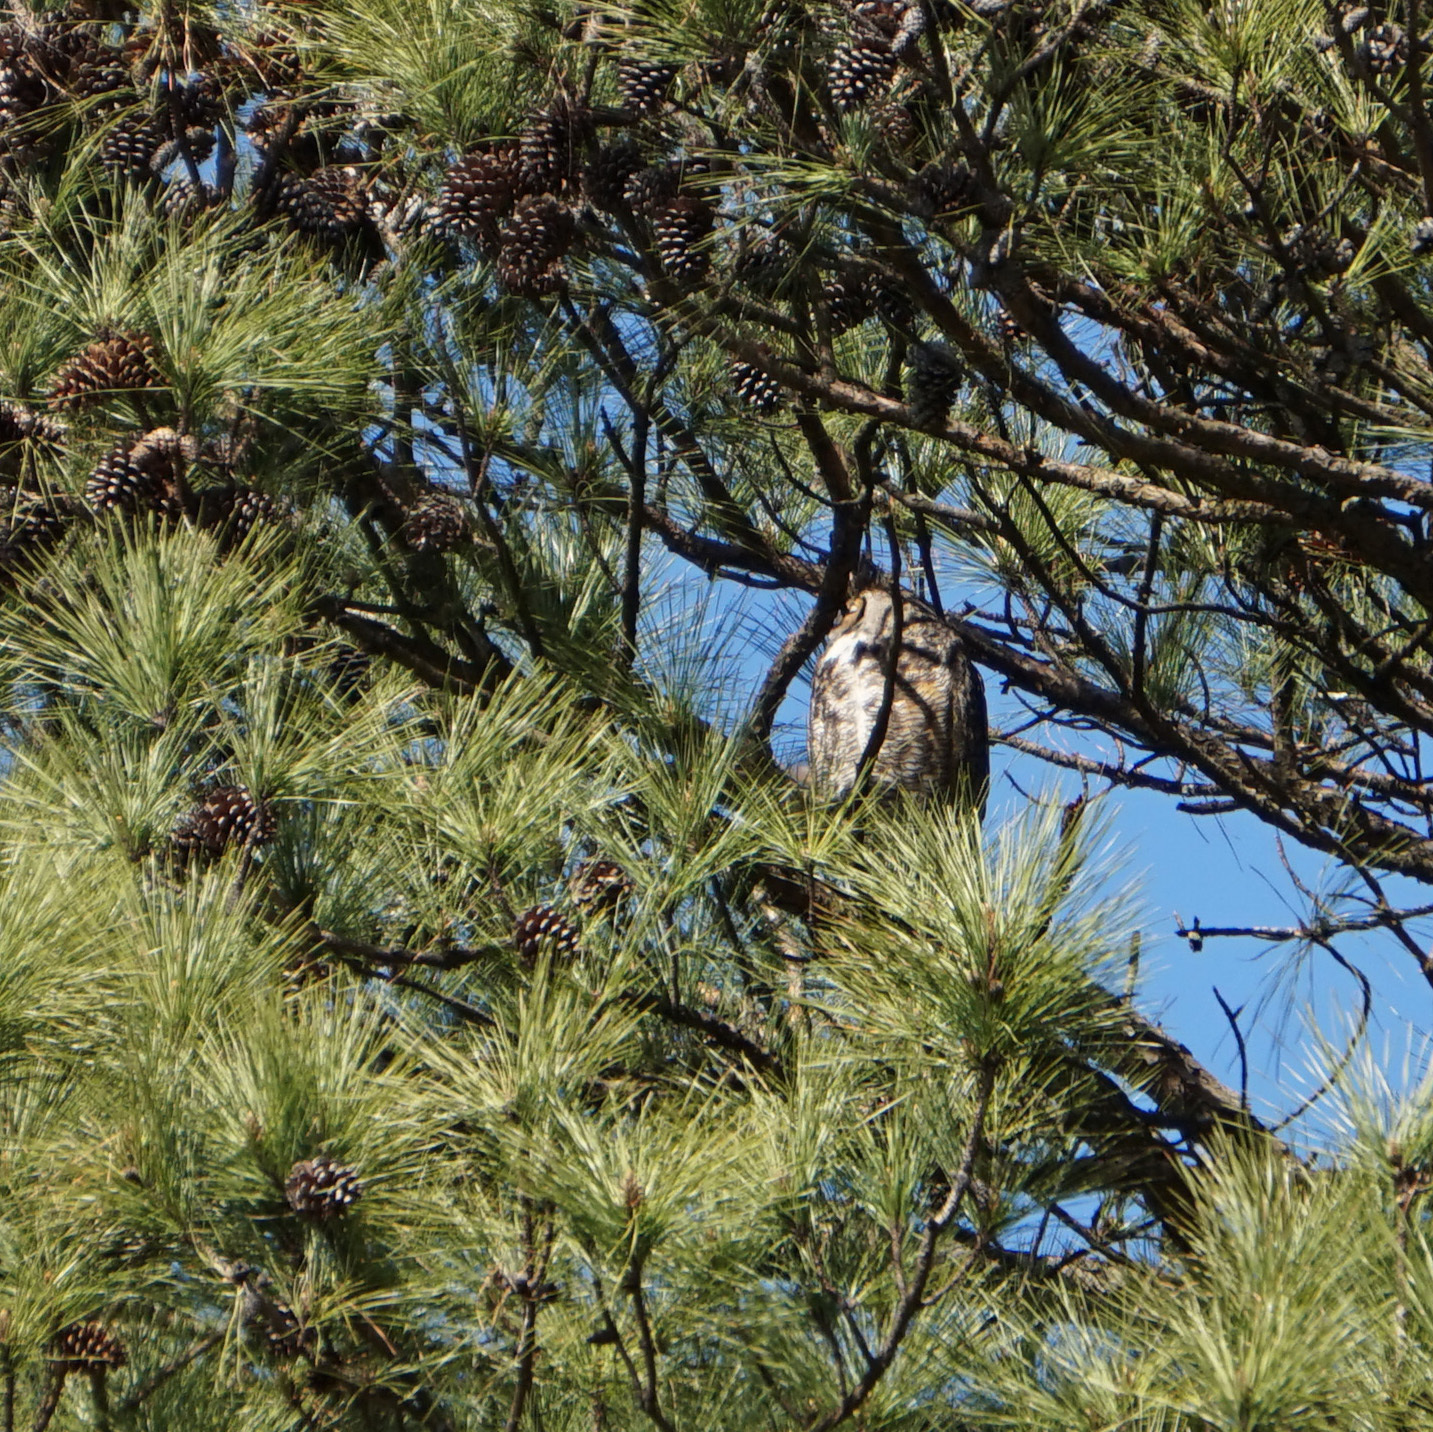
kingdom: Animalia
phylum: Chordata
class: Aves
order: Strigiformes
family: Strigidae
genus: Bubo
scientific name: Bubo virginianus
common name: Great horned owl
